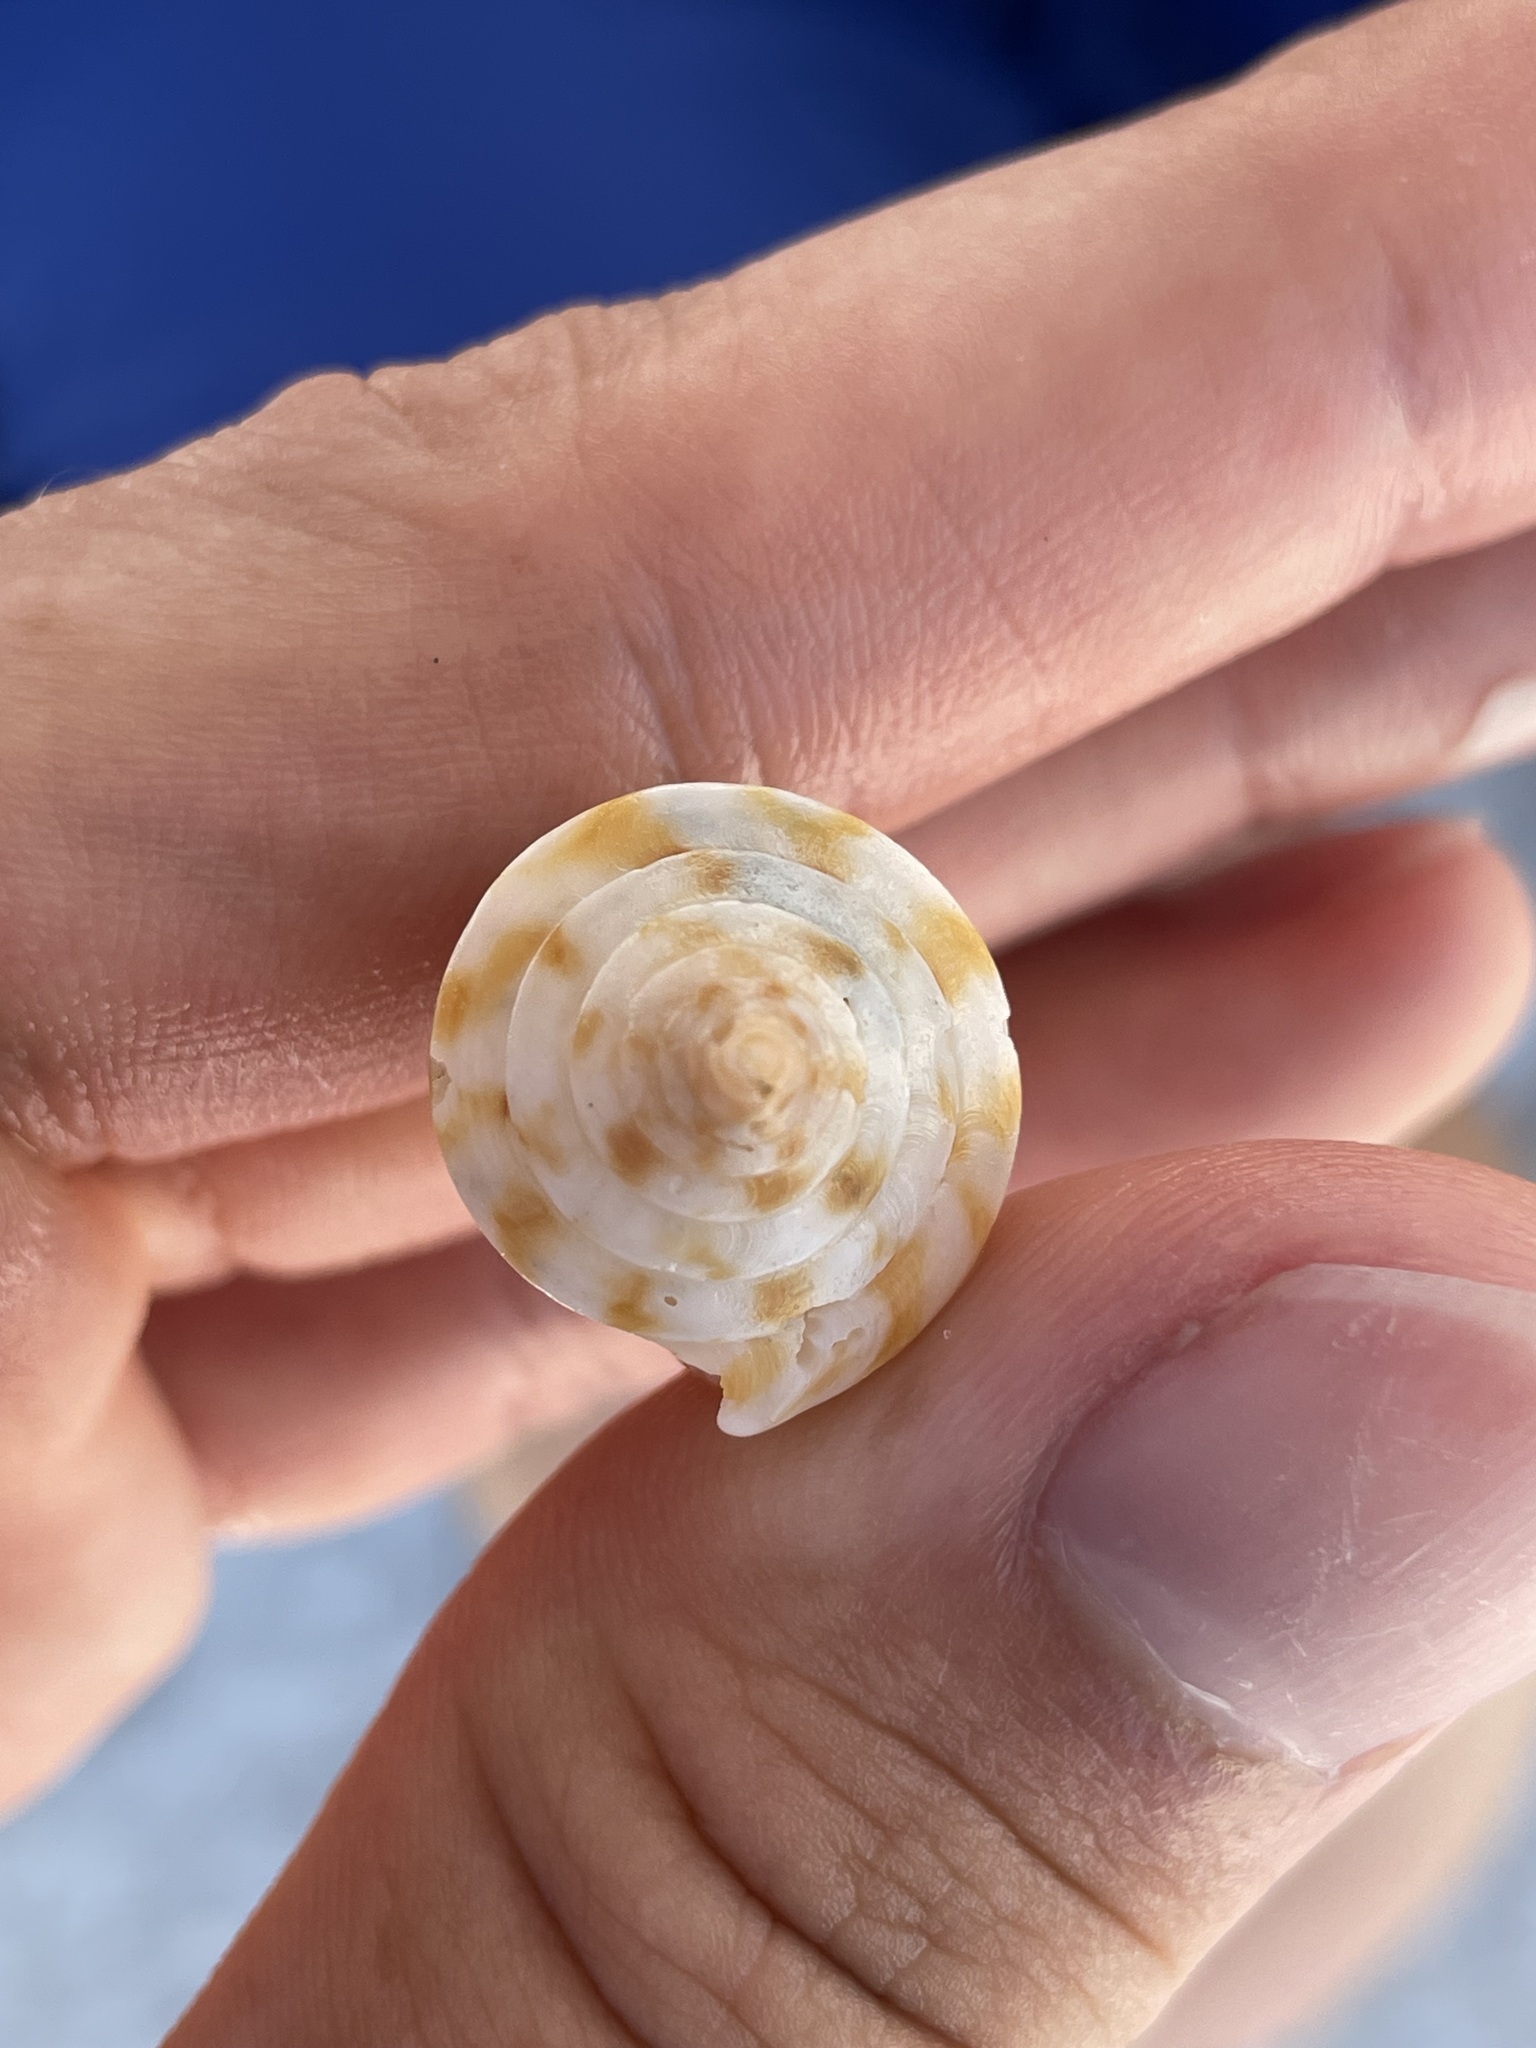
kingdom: Animalia
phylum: Mollusca
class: Gastropoda
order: Neogastropoda
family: Conidae
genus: Conus
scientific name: Conus scalaris
